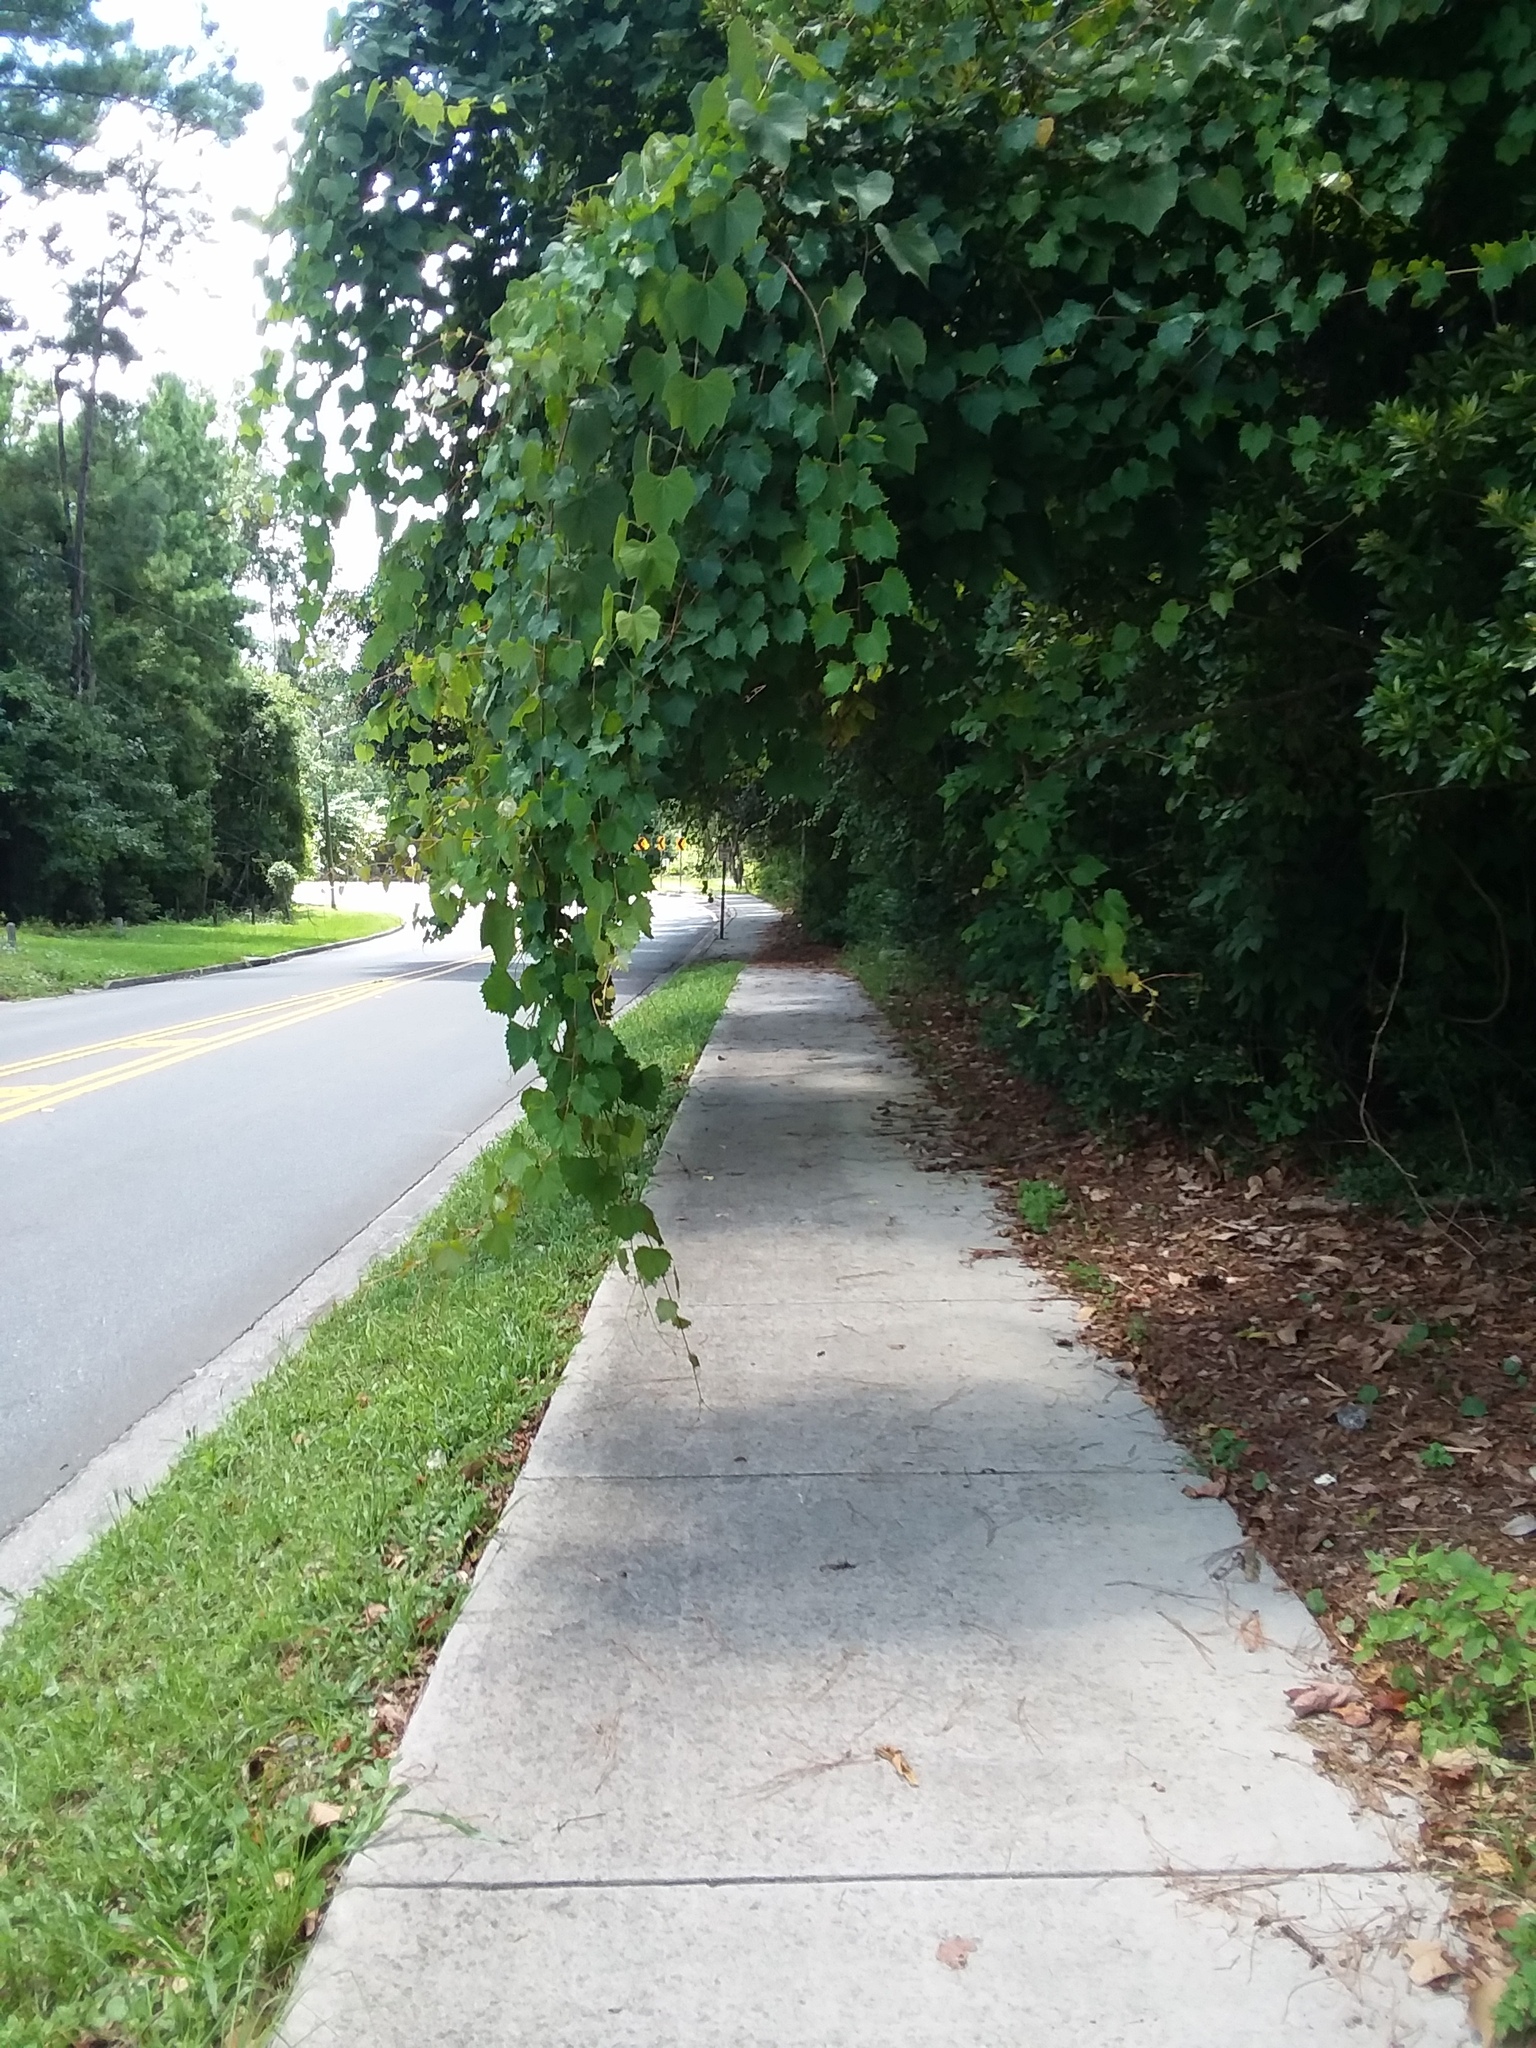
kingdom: Plantae
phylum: Tracheophyta
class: Magnoliopsida
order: Vitales
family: Vitaceae
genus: Vitis
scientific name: Vitis rotundifolia
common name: Muscadine grape
